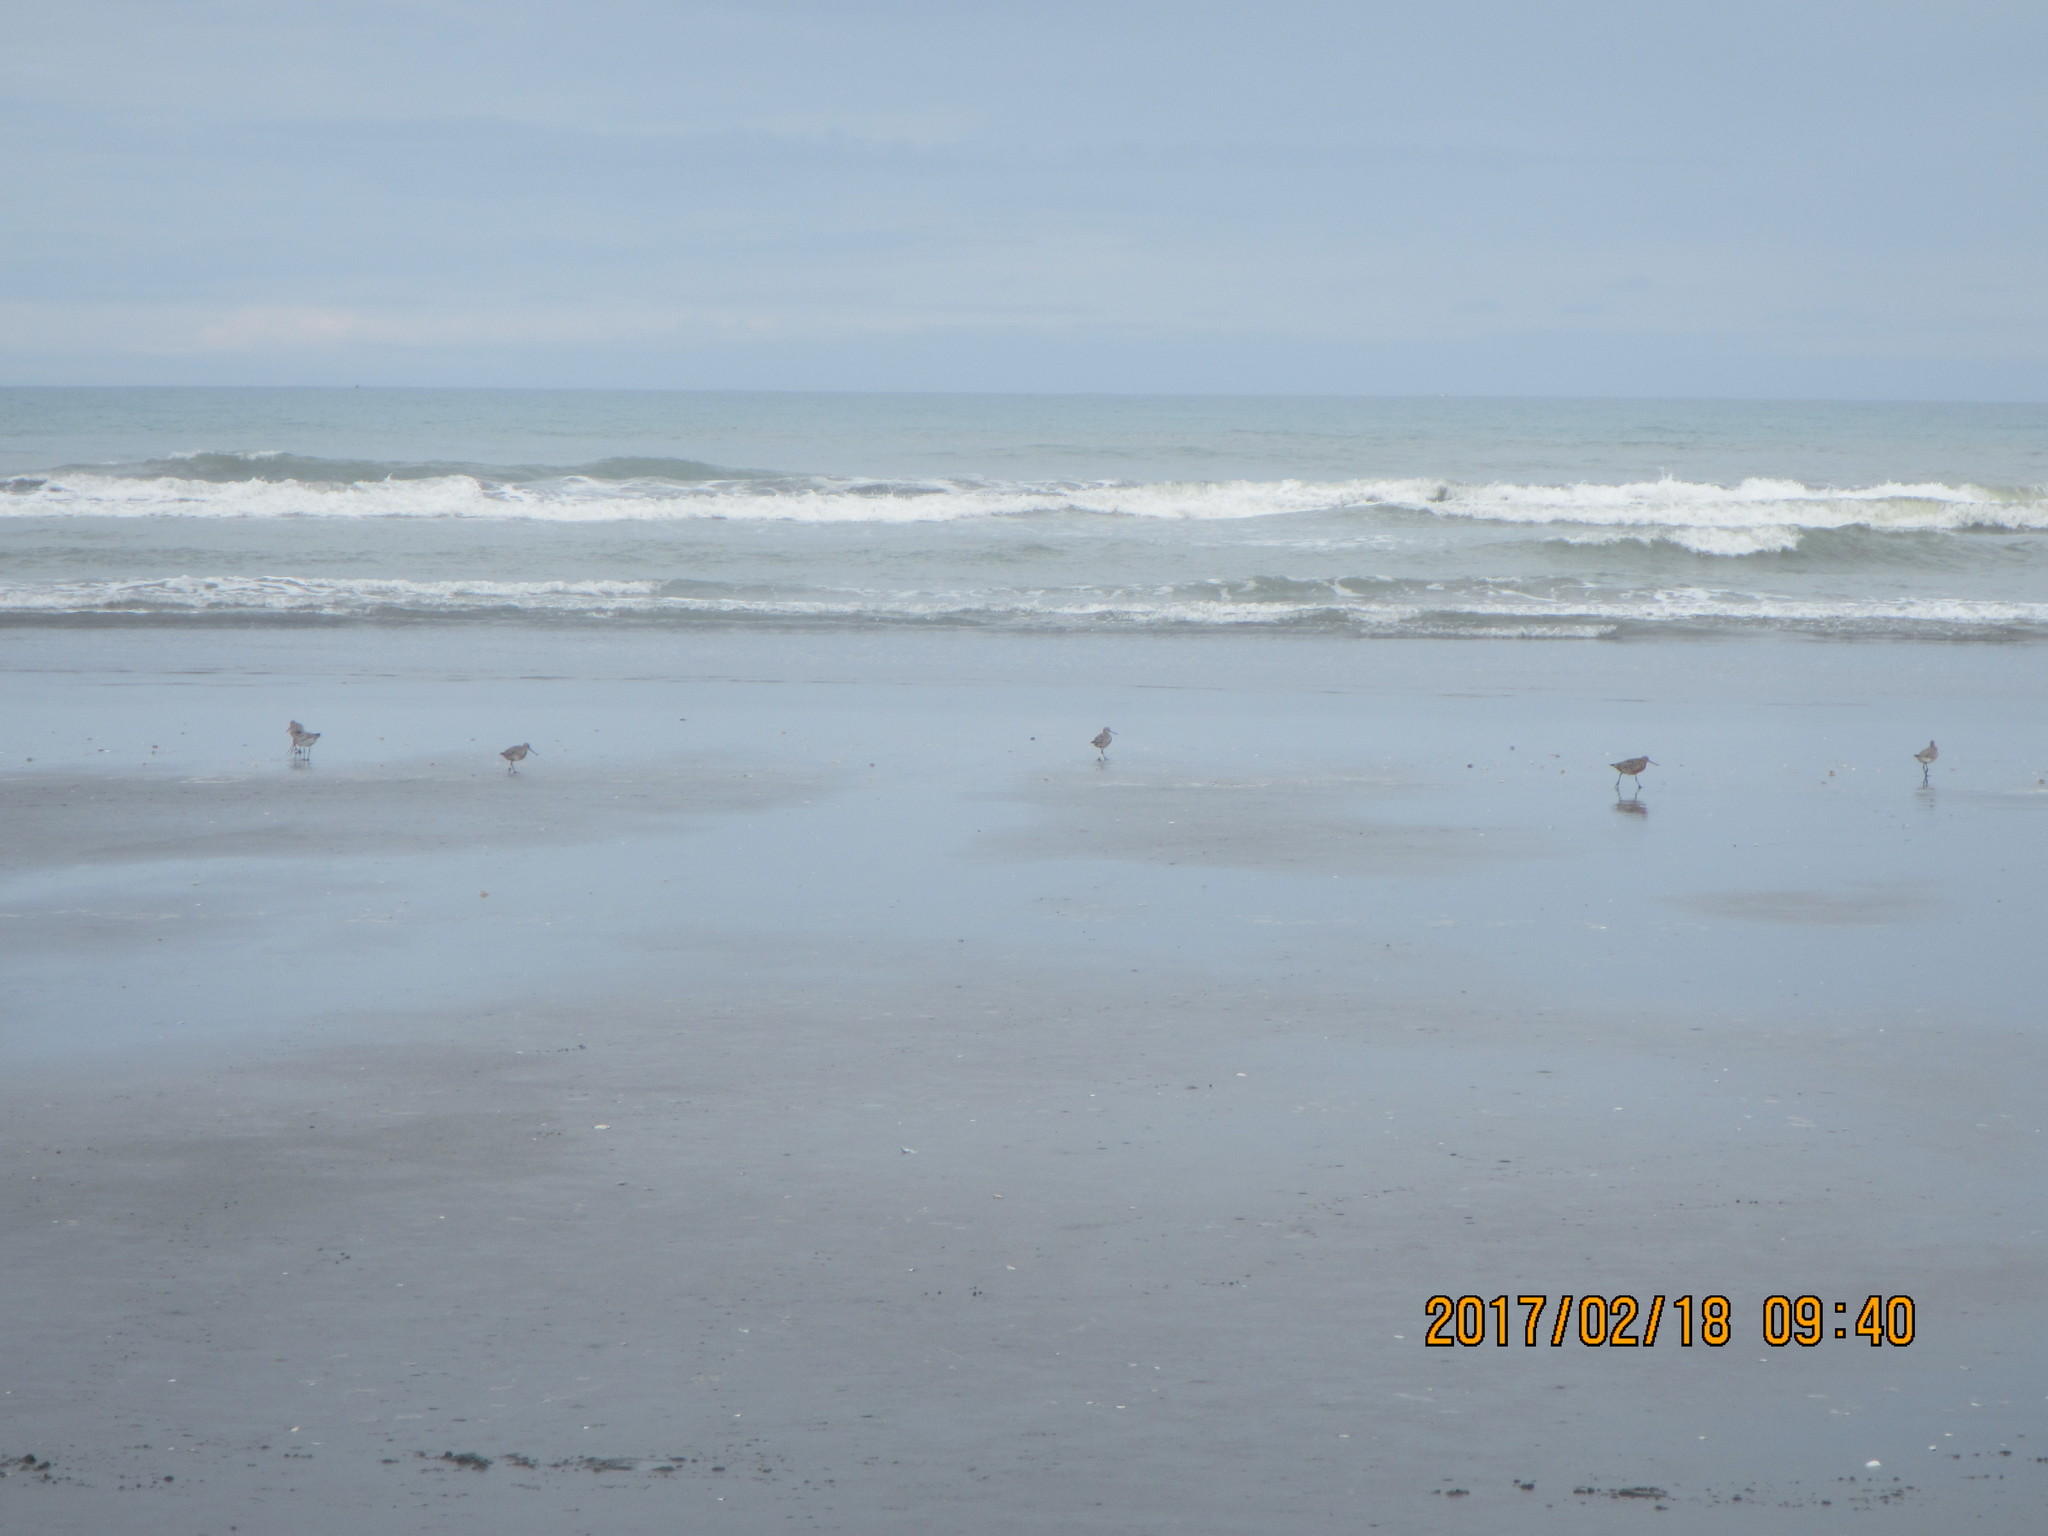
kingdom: Animalia
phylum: Chordata
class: Aves
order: Charadriiformes
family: Scolopacidae
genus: Limosa
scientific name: Limosa lapponica
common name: Bar-tailed godwit
